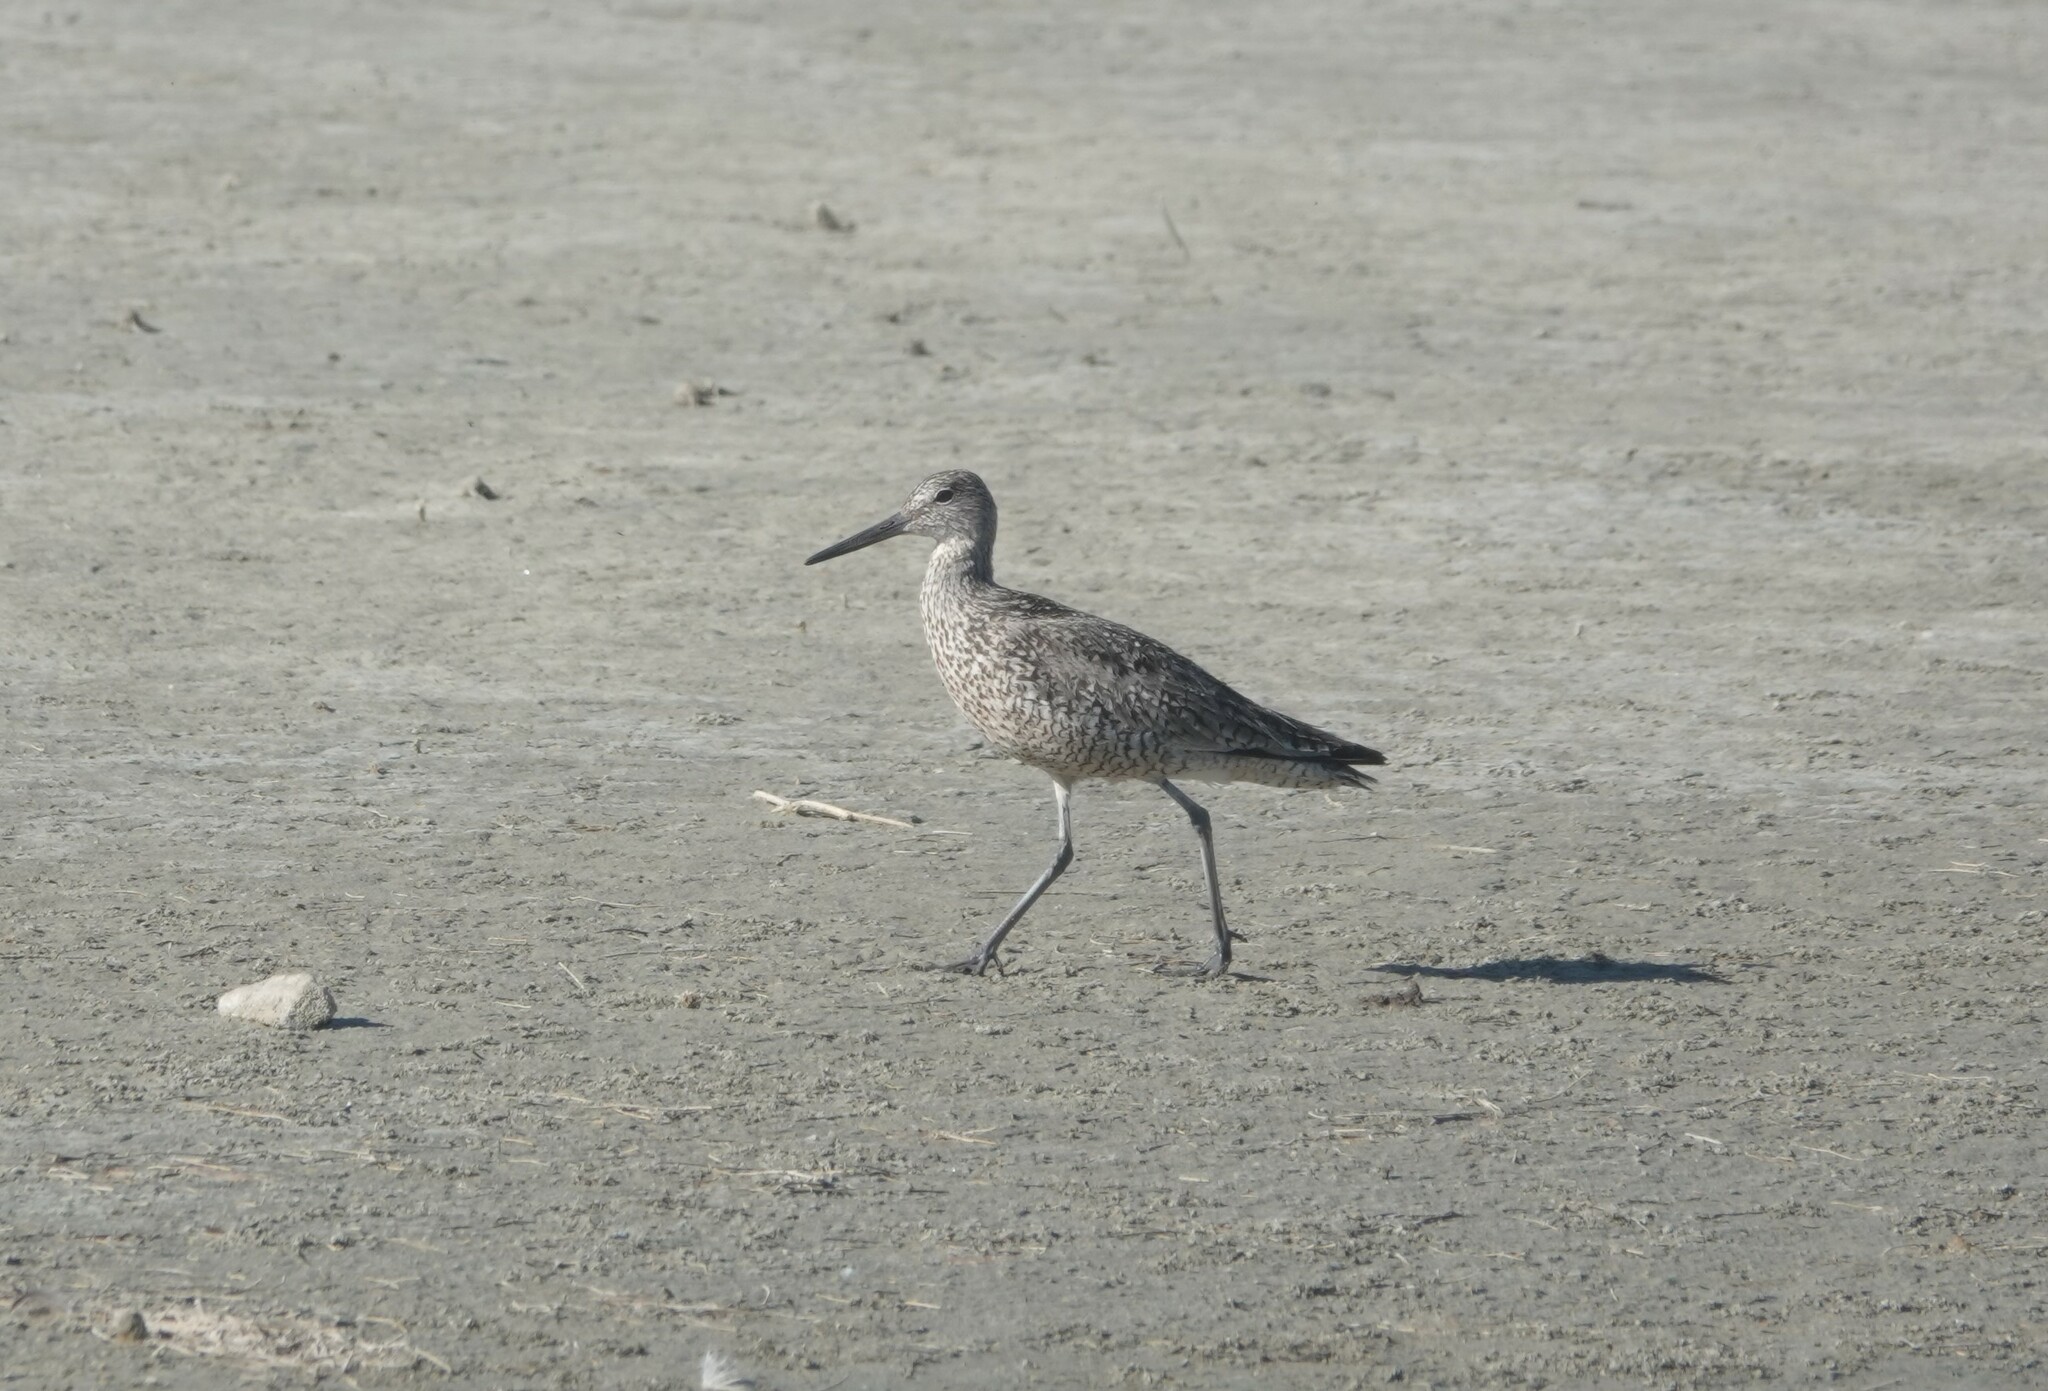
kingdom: Animalia
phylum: Chordata
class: Aves
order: Charadriiformes
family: Scolopacidae
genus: Tringa
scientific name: Tringa semipalmata
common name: Willet
